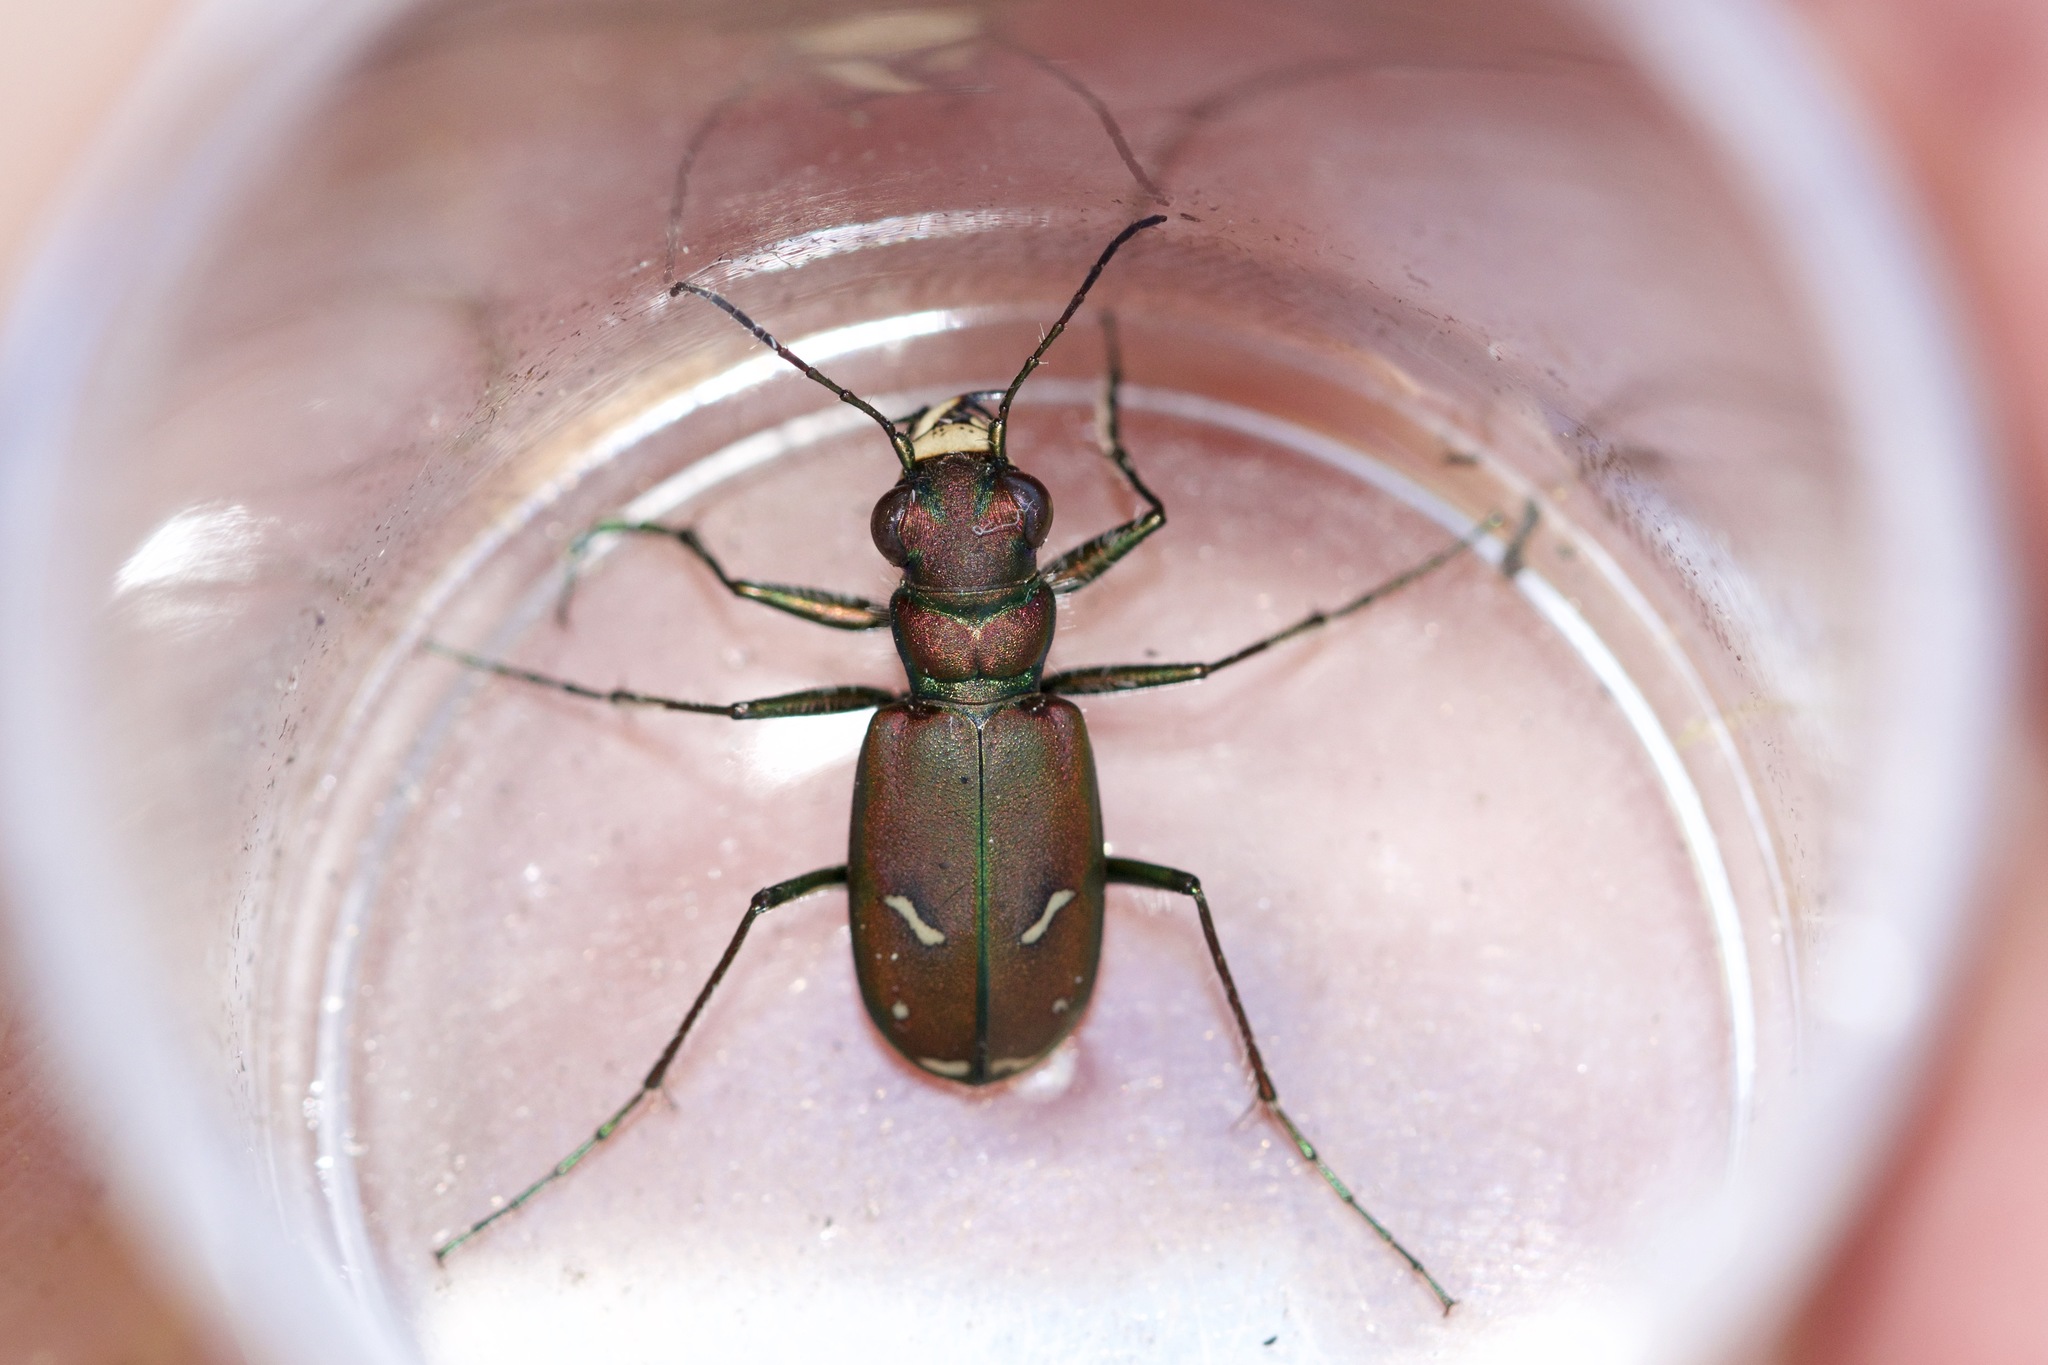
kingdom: Animalia
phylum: Arthropoda
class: Insecta
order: Coleoptera
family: Carabidae
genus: Cicindela
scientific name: Cicindela purpurea
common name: Cow path tiger beetle
